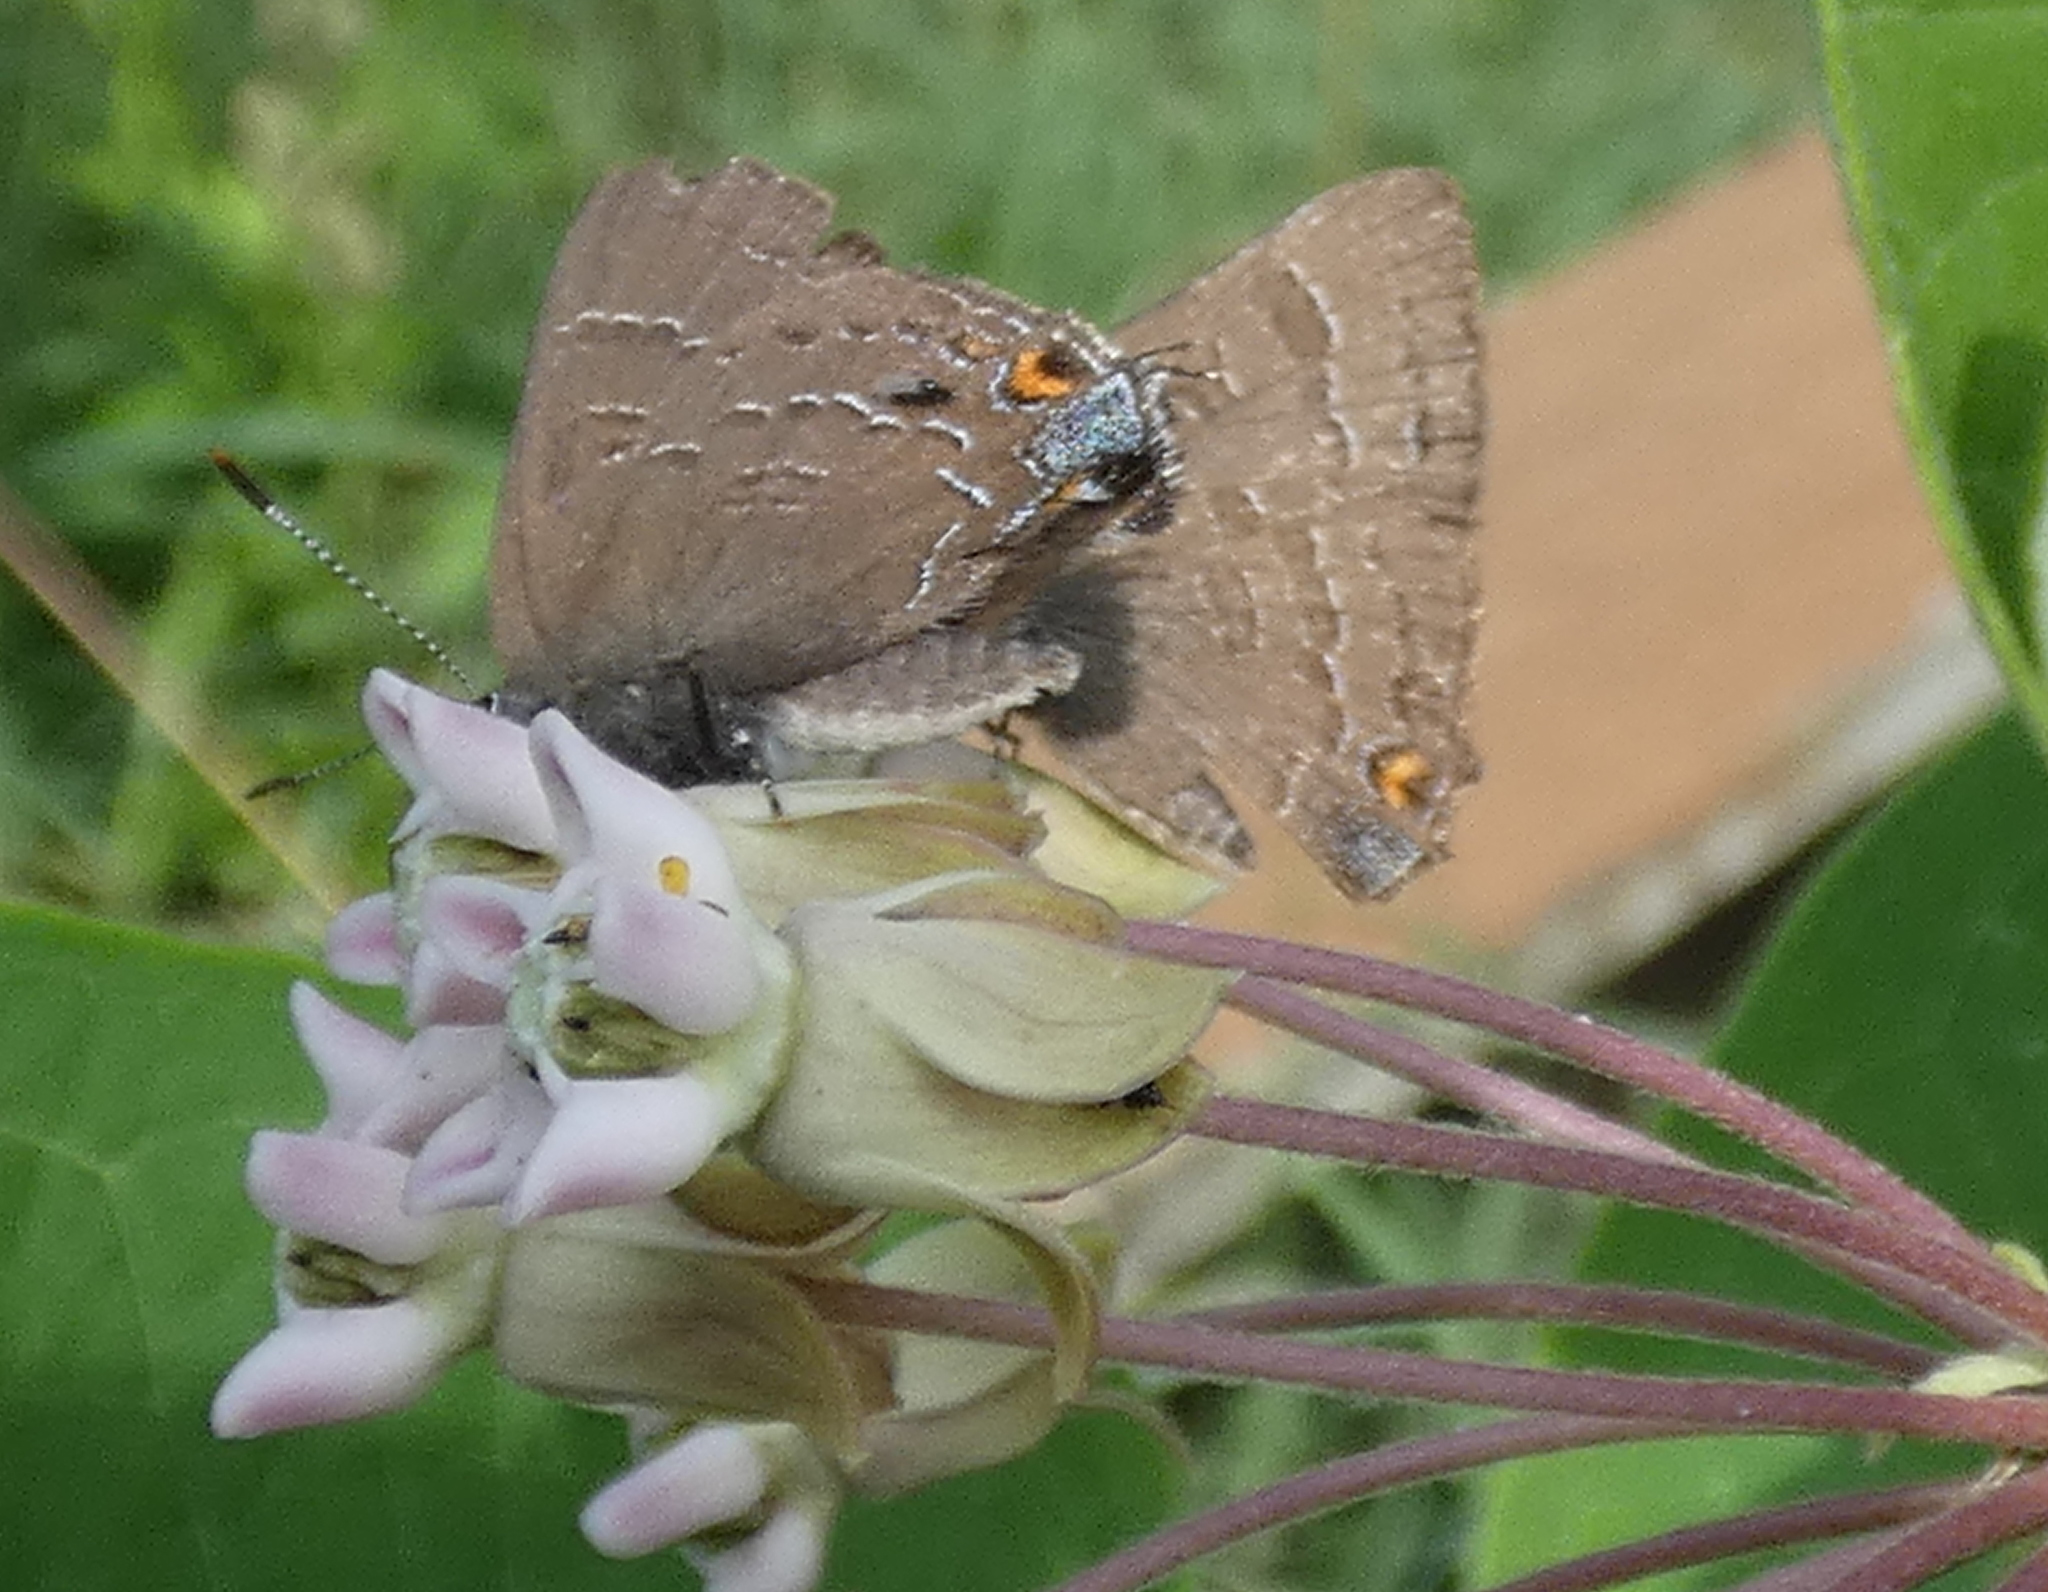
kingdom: Animalia
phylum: Arthropoda
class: Insecta
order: Lepidoptera
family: Lycaenidae
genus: Satyrium
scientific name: Satyrium calanus
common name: Banded hairstreak
